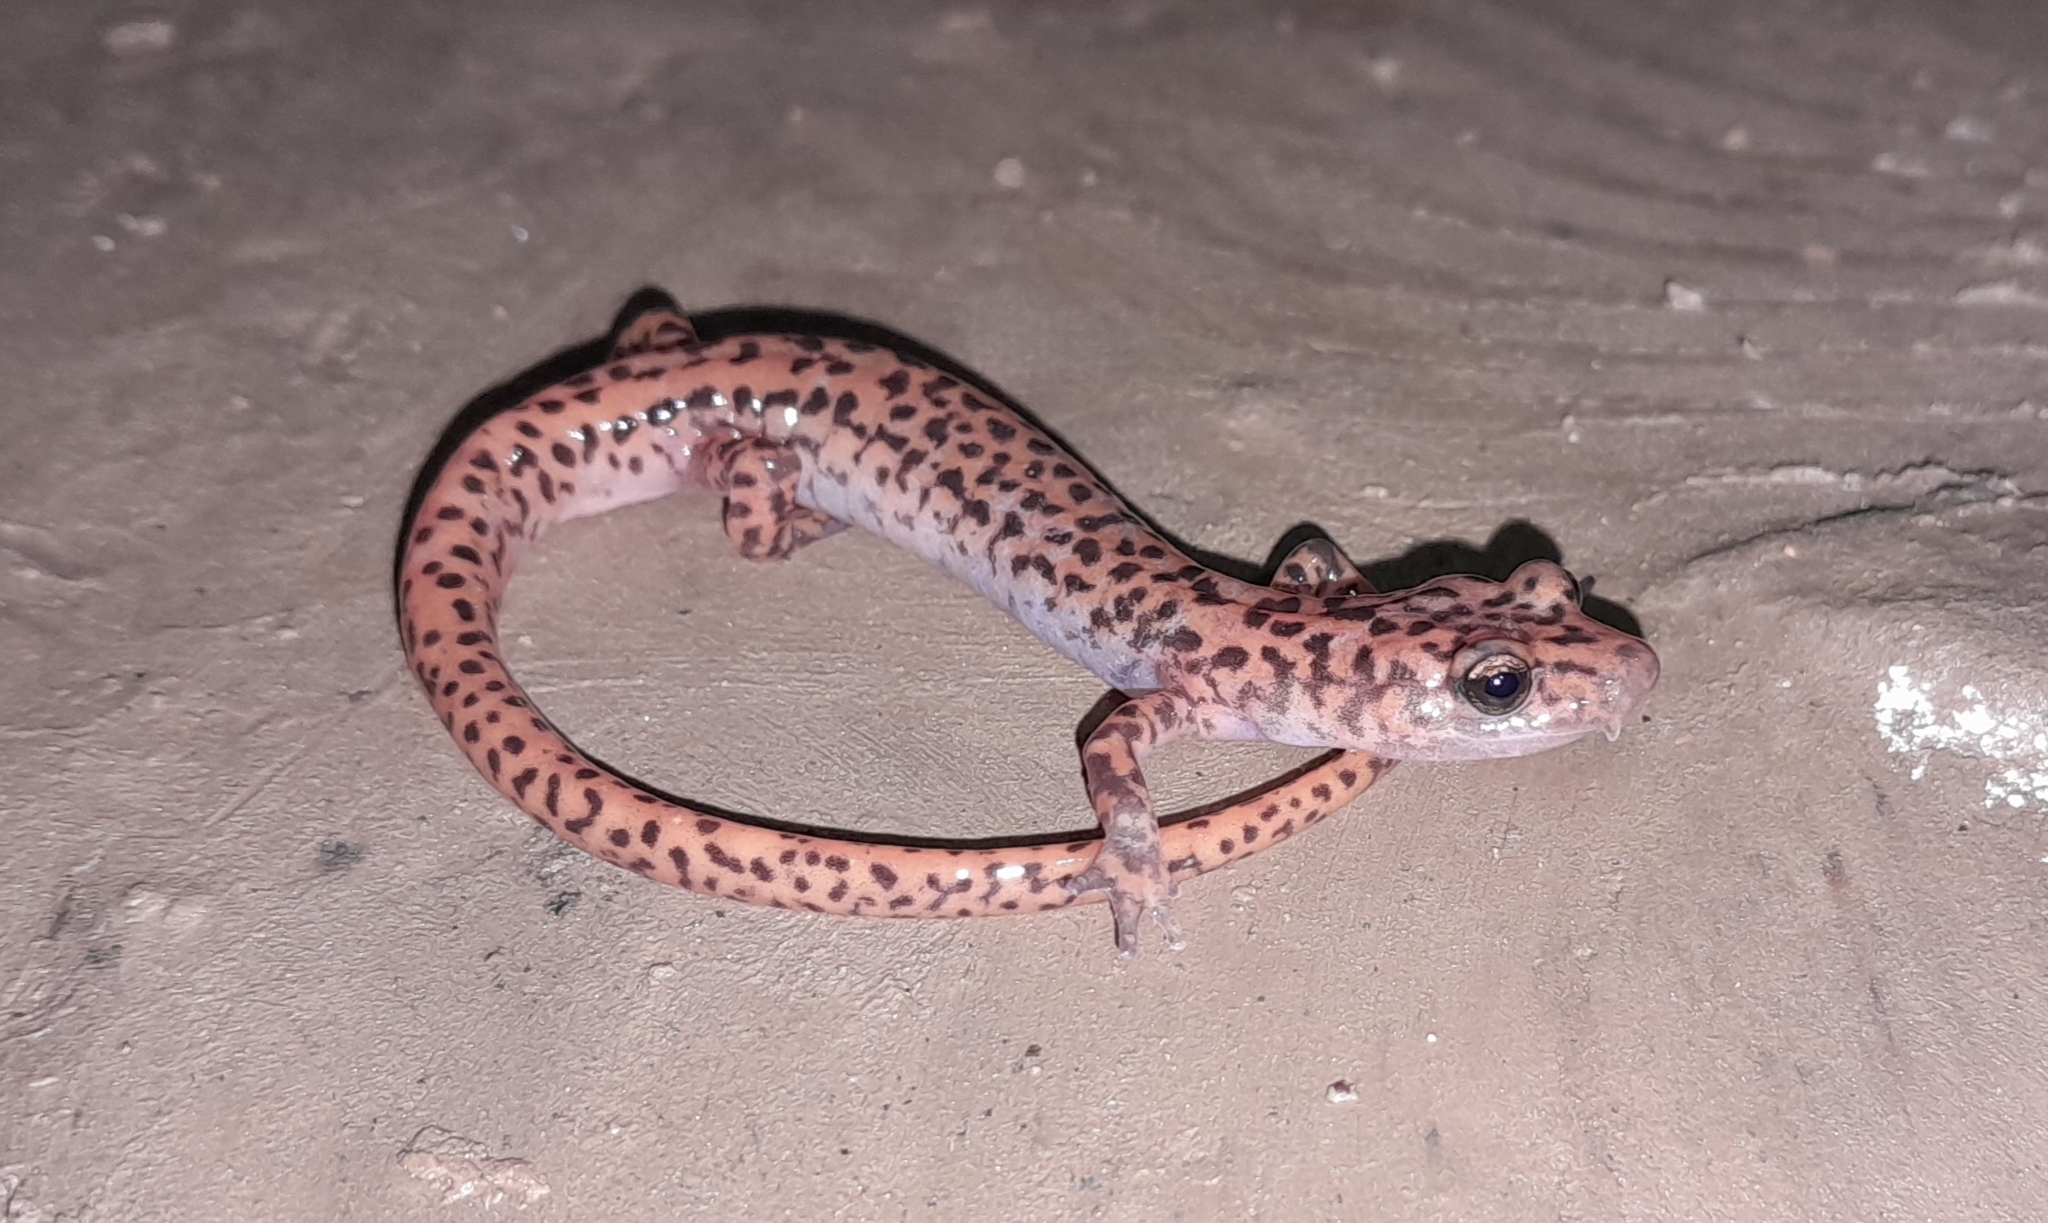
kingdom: Animalia
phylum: Chordata
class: Amphibia
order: Caudata
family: Plethodontidae
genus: Eurycea
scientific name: Eurycea lucifuga
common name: Cave salamander
